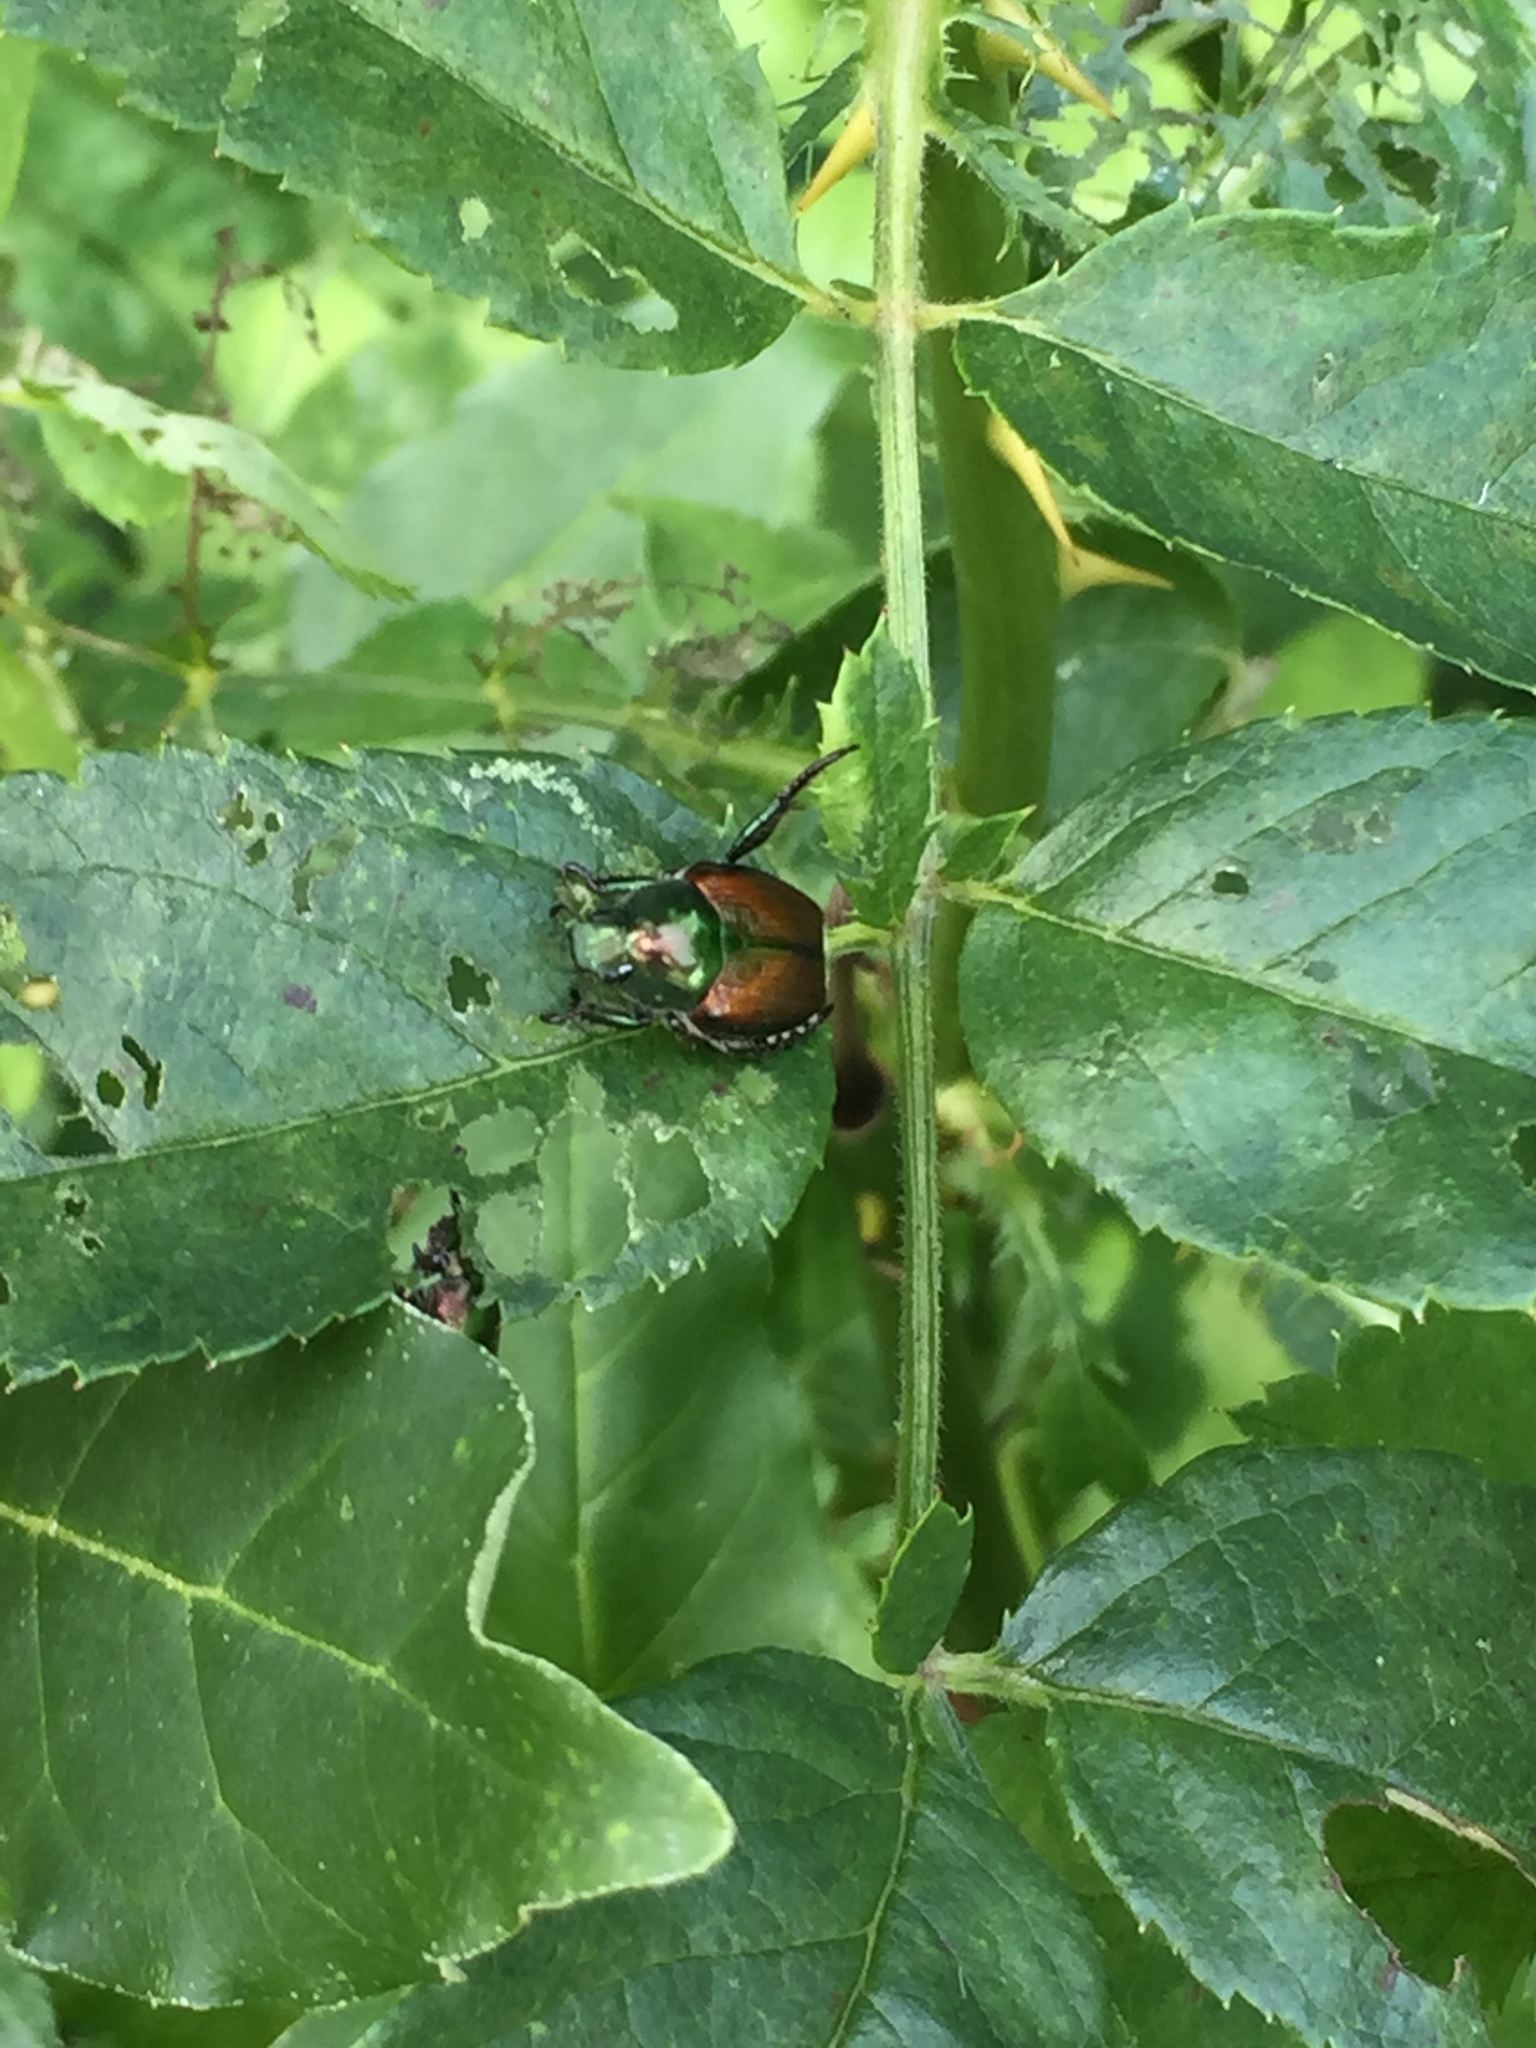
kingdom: Animalia
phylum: Arthropoda
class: Insecta
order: Coleoptera
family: Scarabaeidae
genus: Popillia
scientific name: Popillia japonica
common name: Japanese beetle
